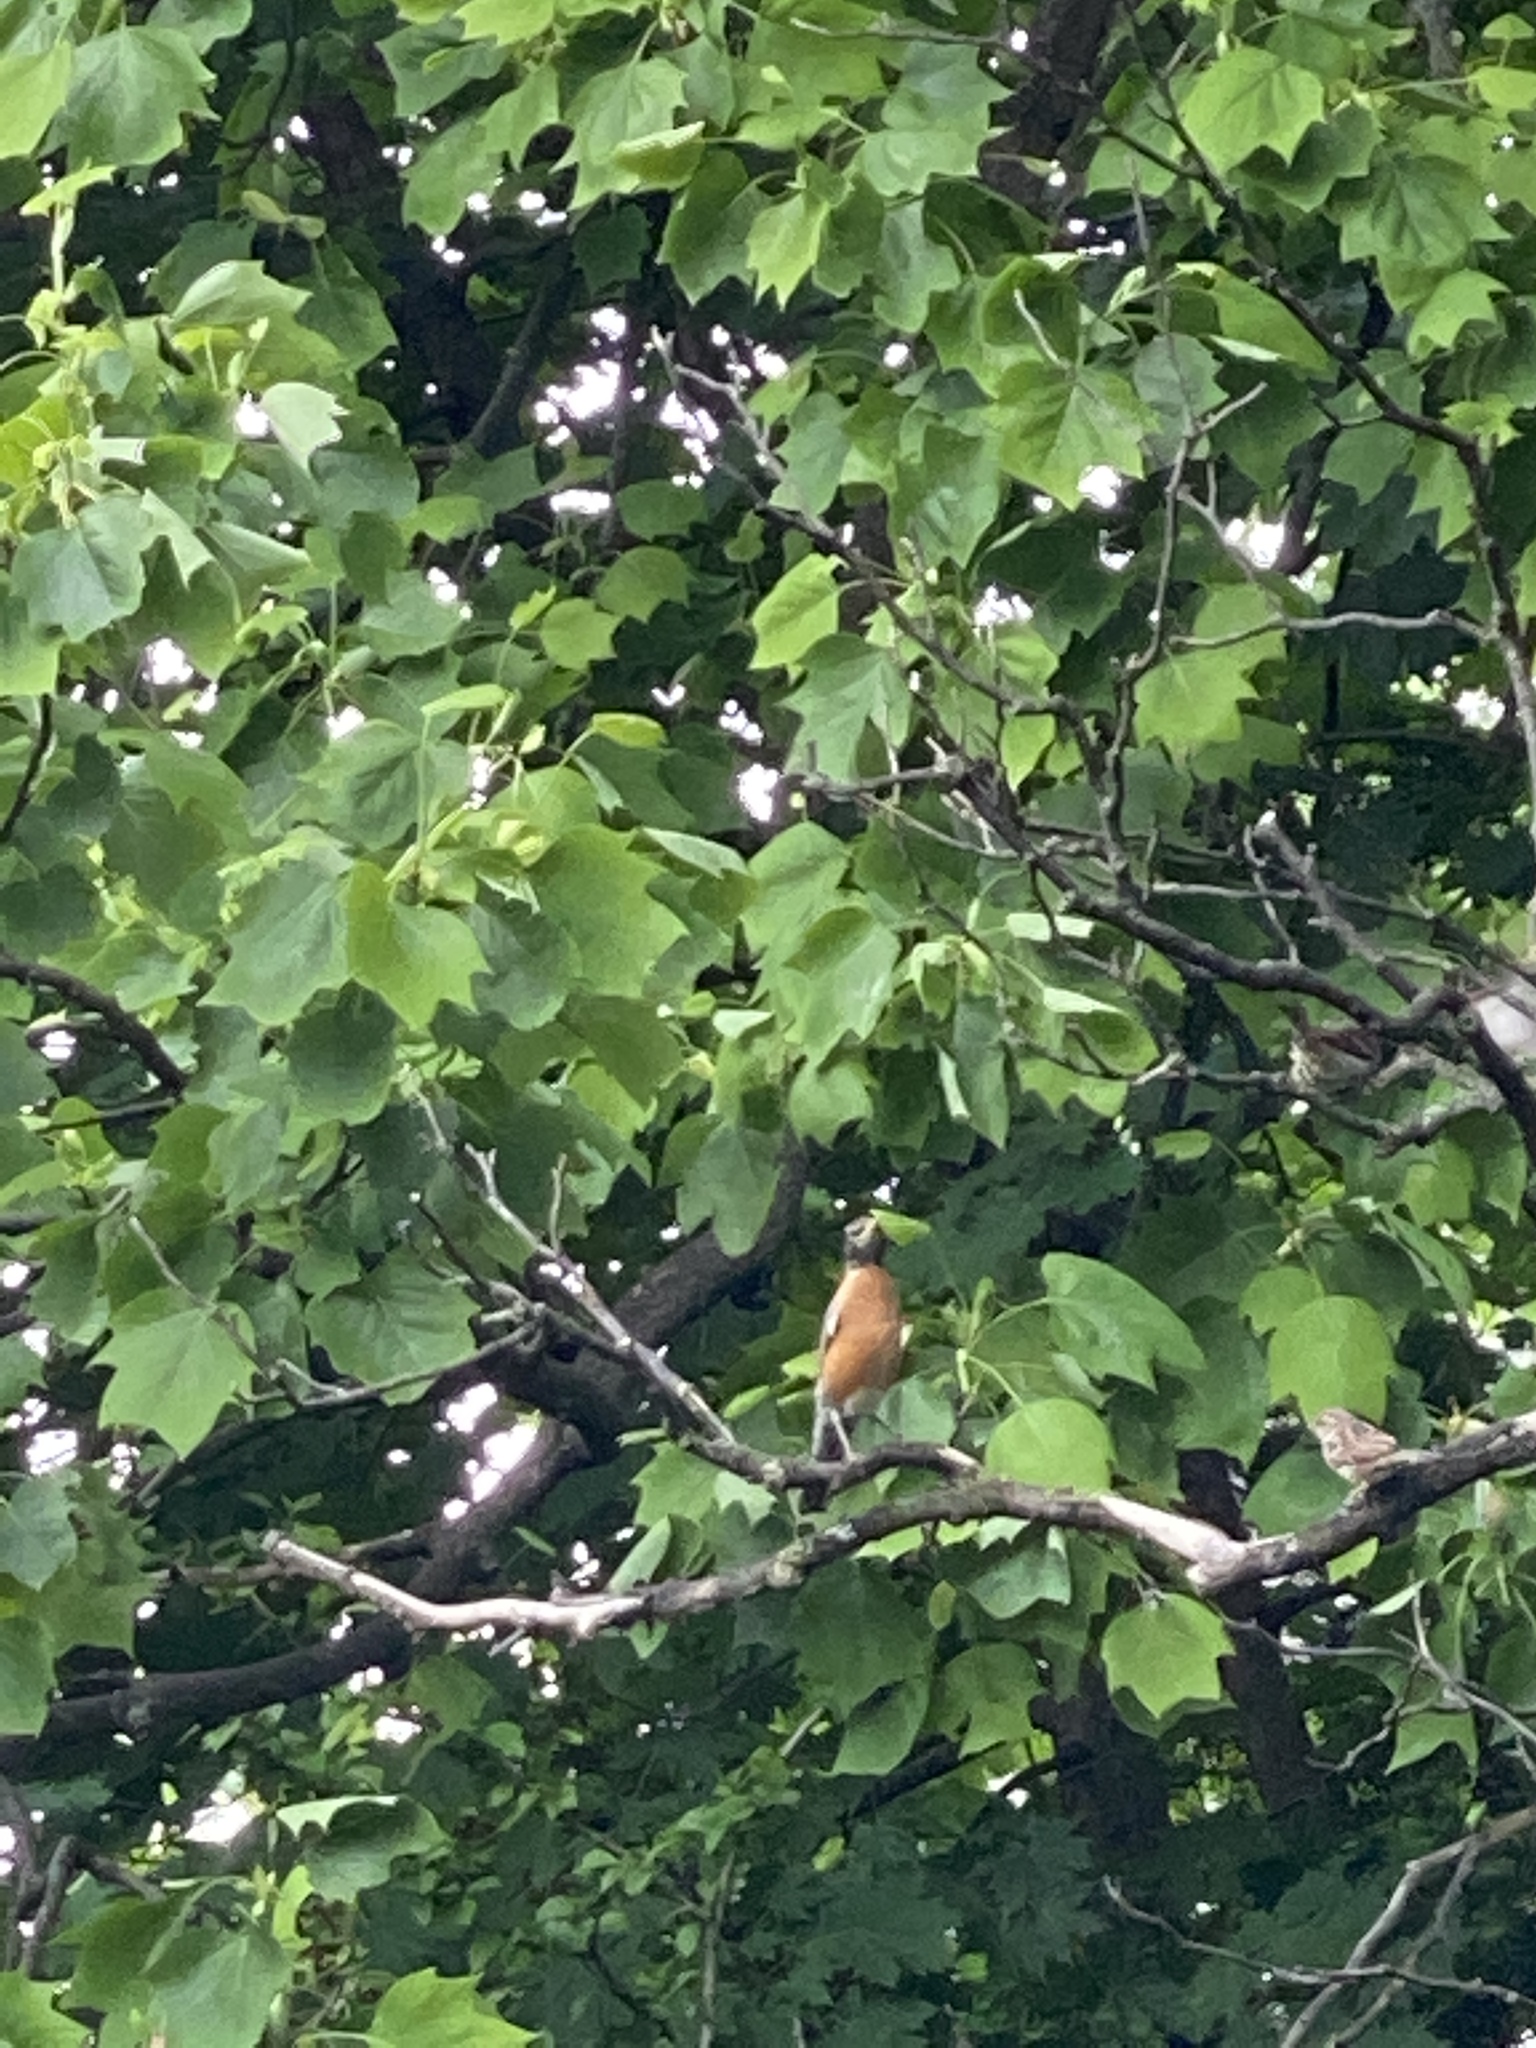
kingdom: Animalia
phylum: Chordata
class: Aves
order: Passeriformes
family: Turdidae
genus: Turdus
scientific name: Turdus migratorius
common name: American robin
